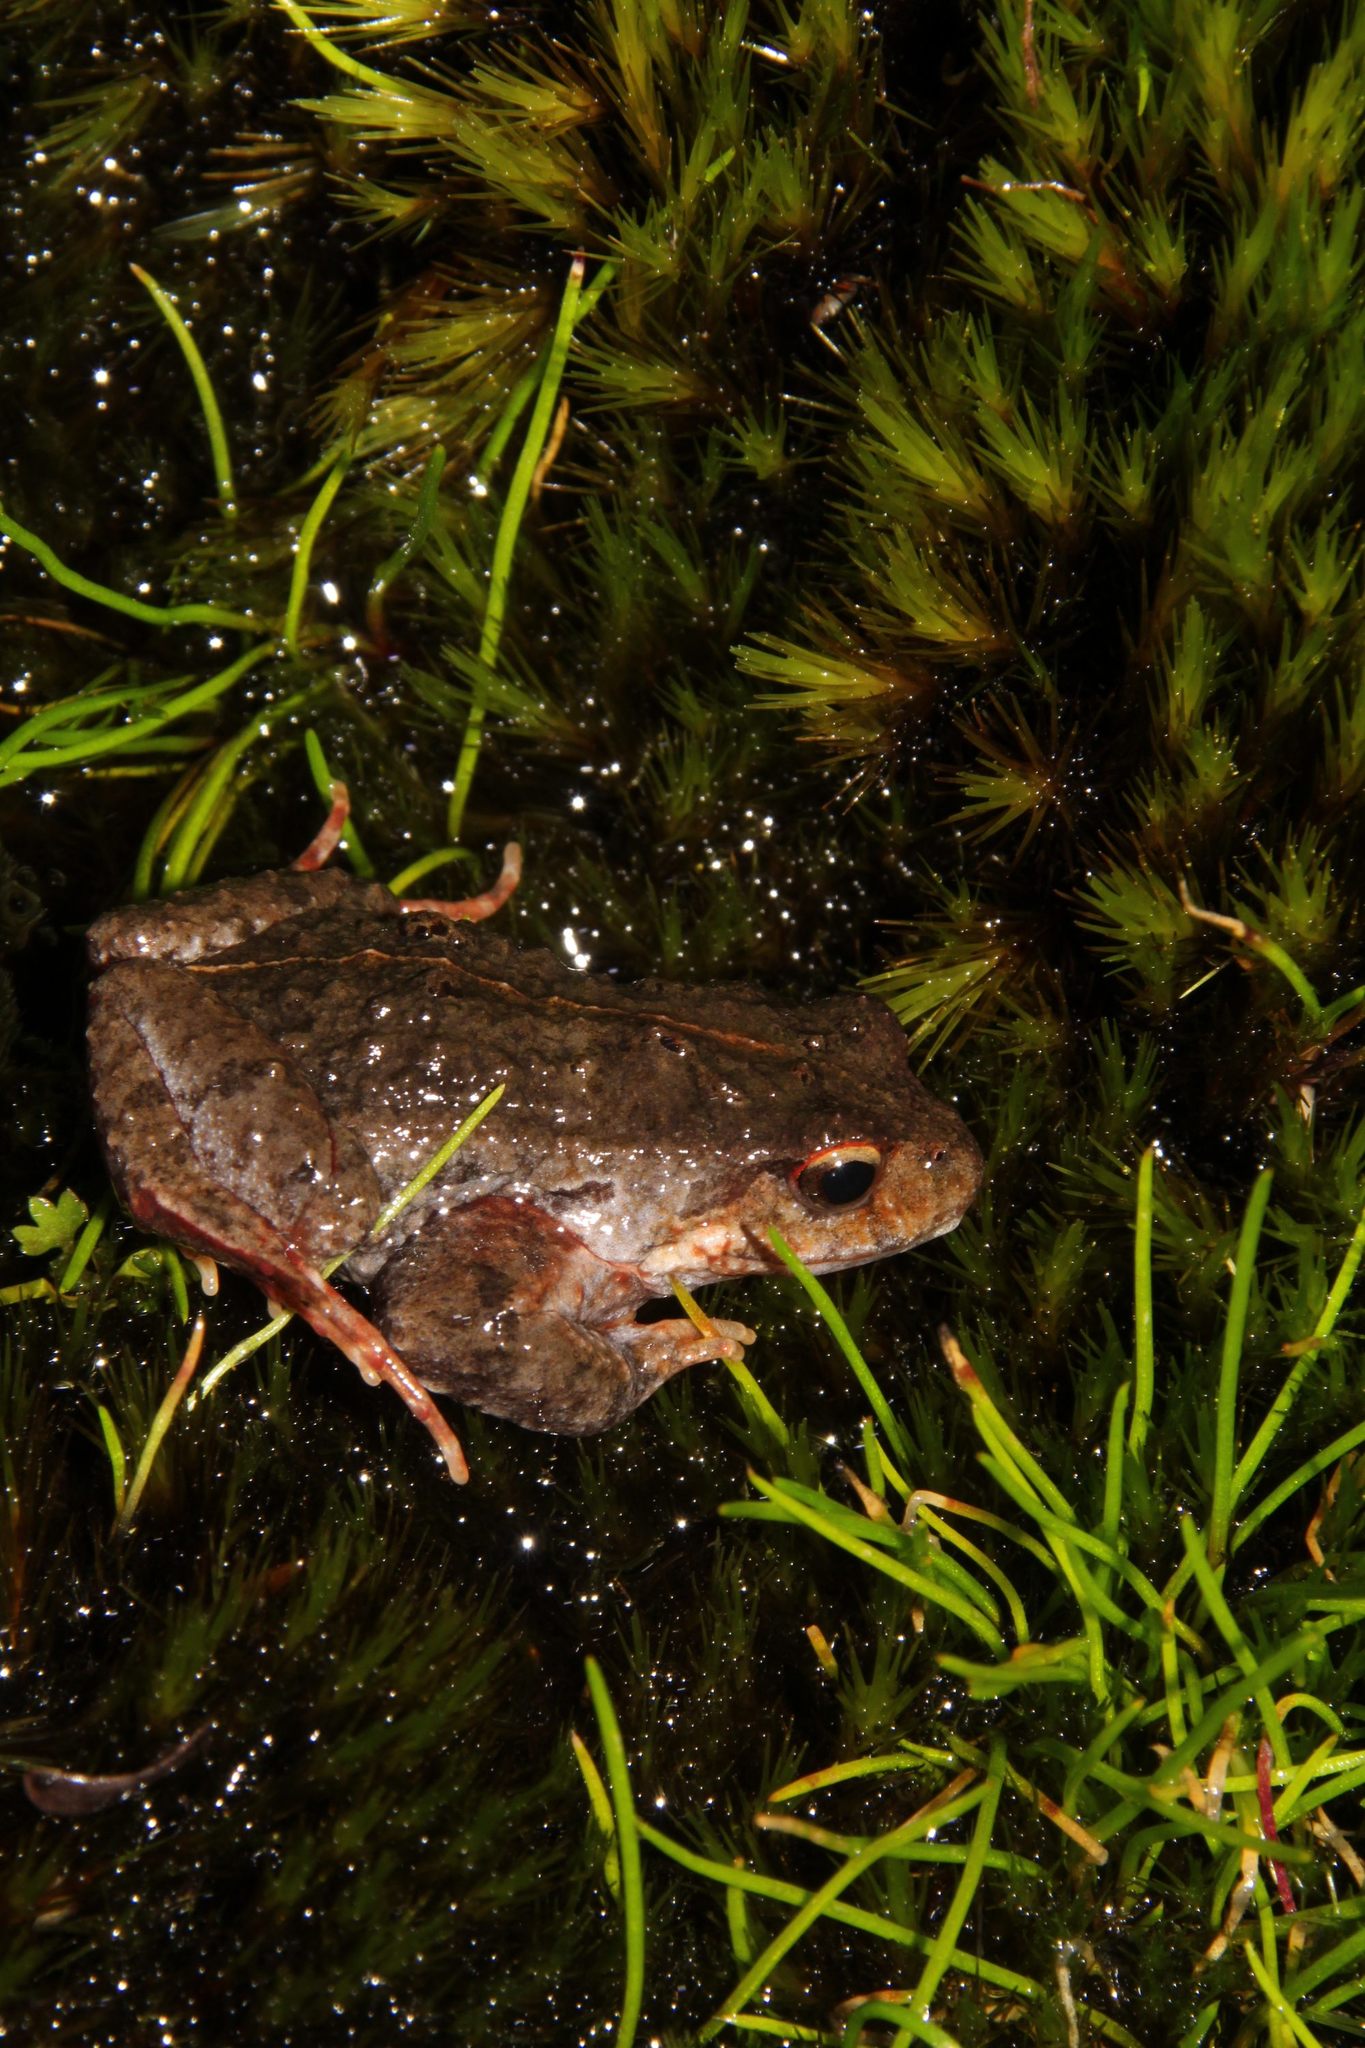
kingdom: Animalia
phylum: Chordata
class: Amphibia
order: Anura
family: Myobatrachidae
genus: Crinia
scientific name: Crinia georgiana
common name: Quacking frog
